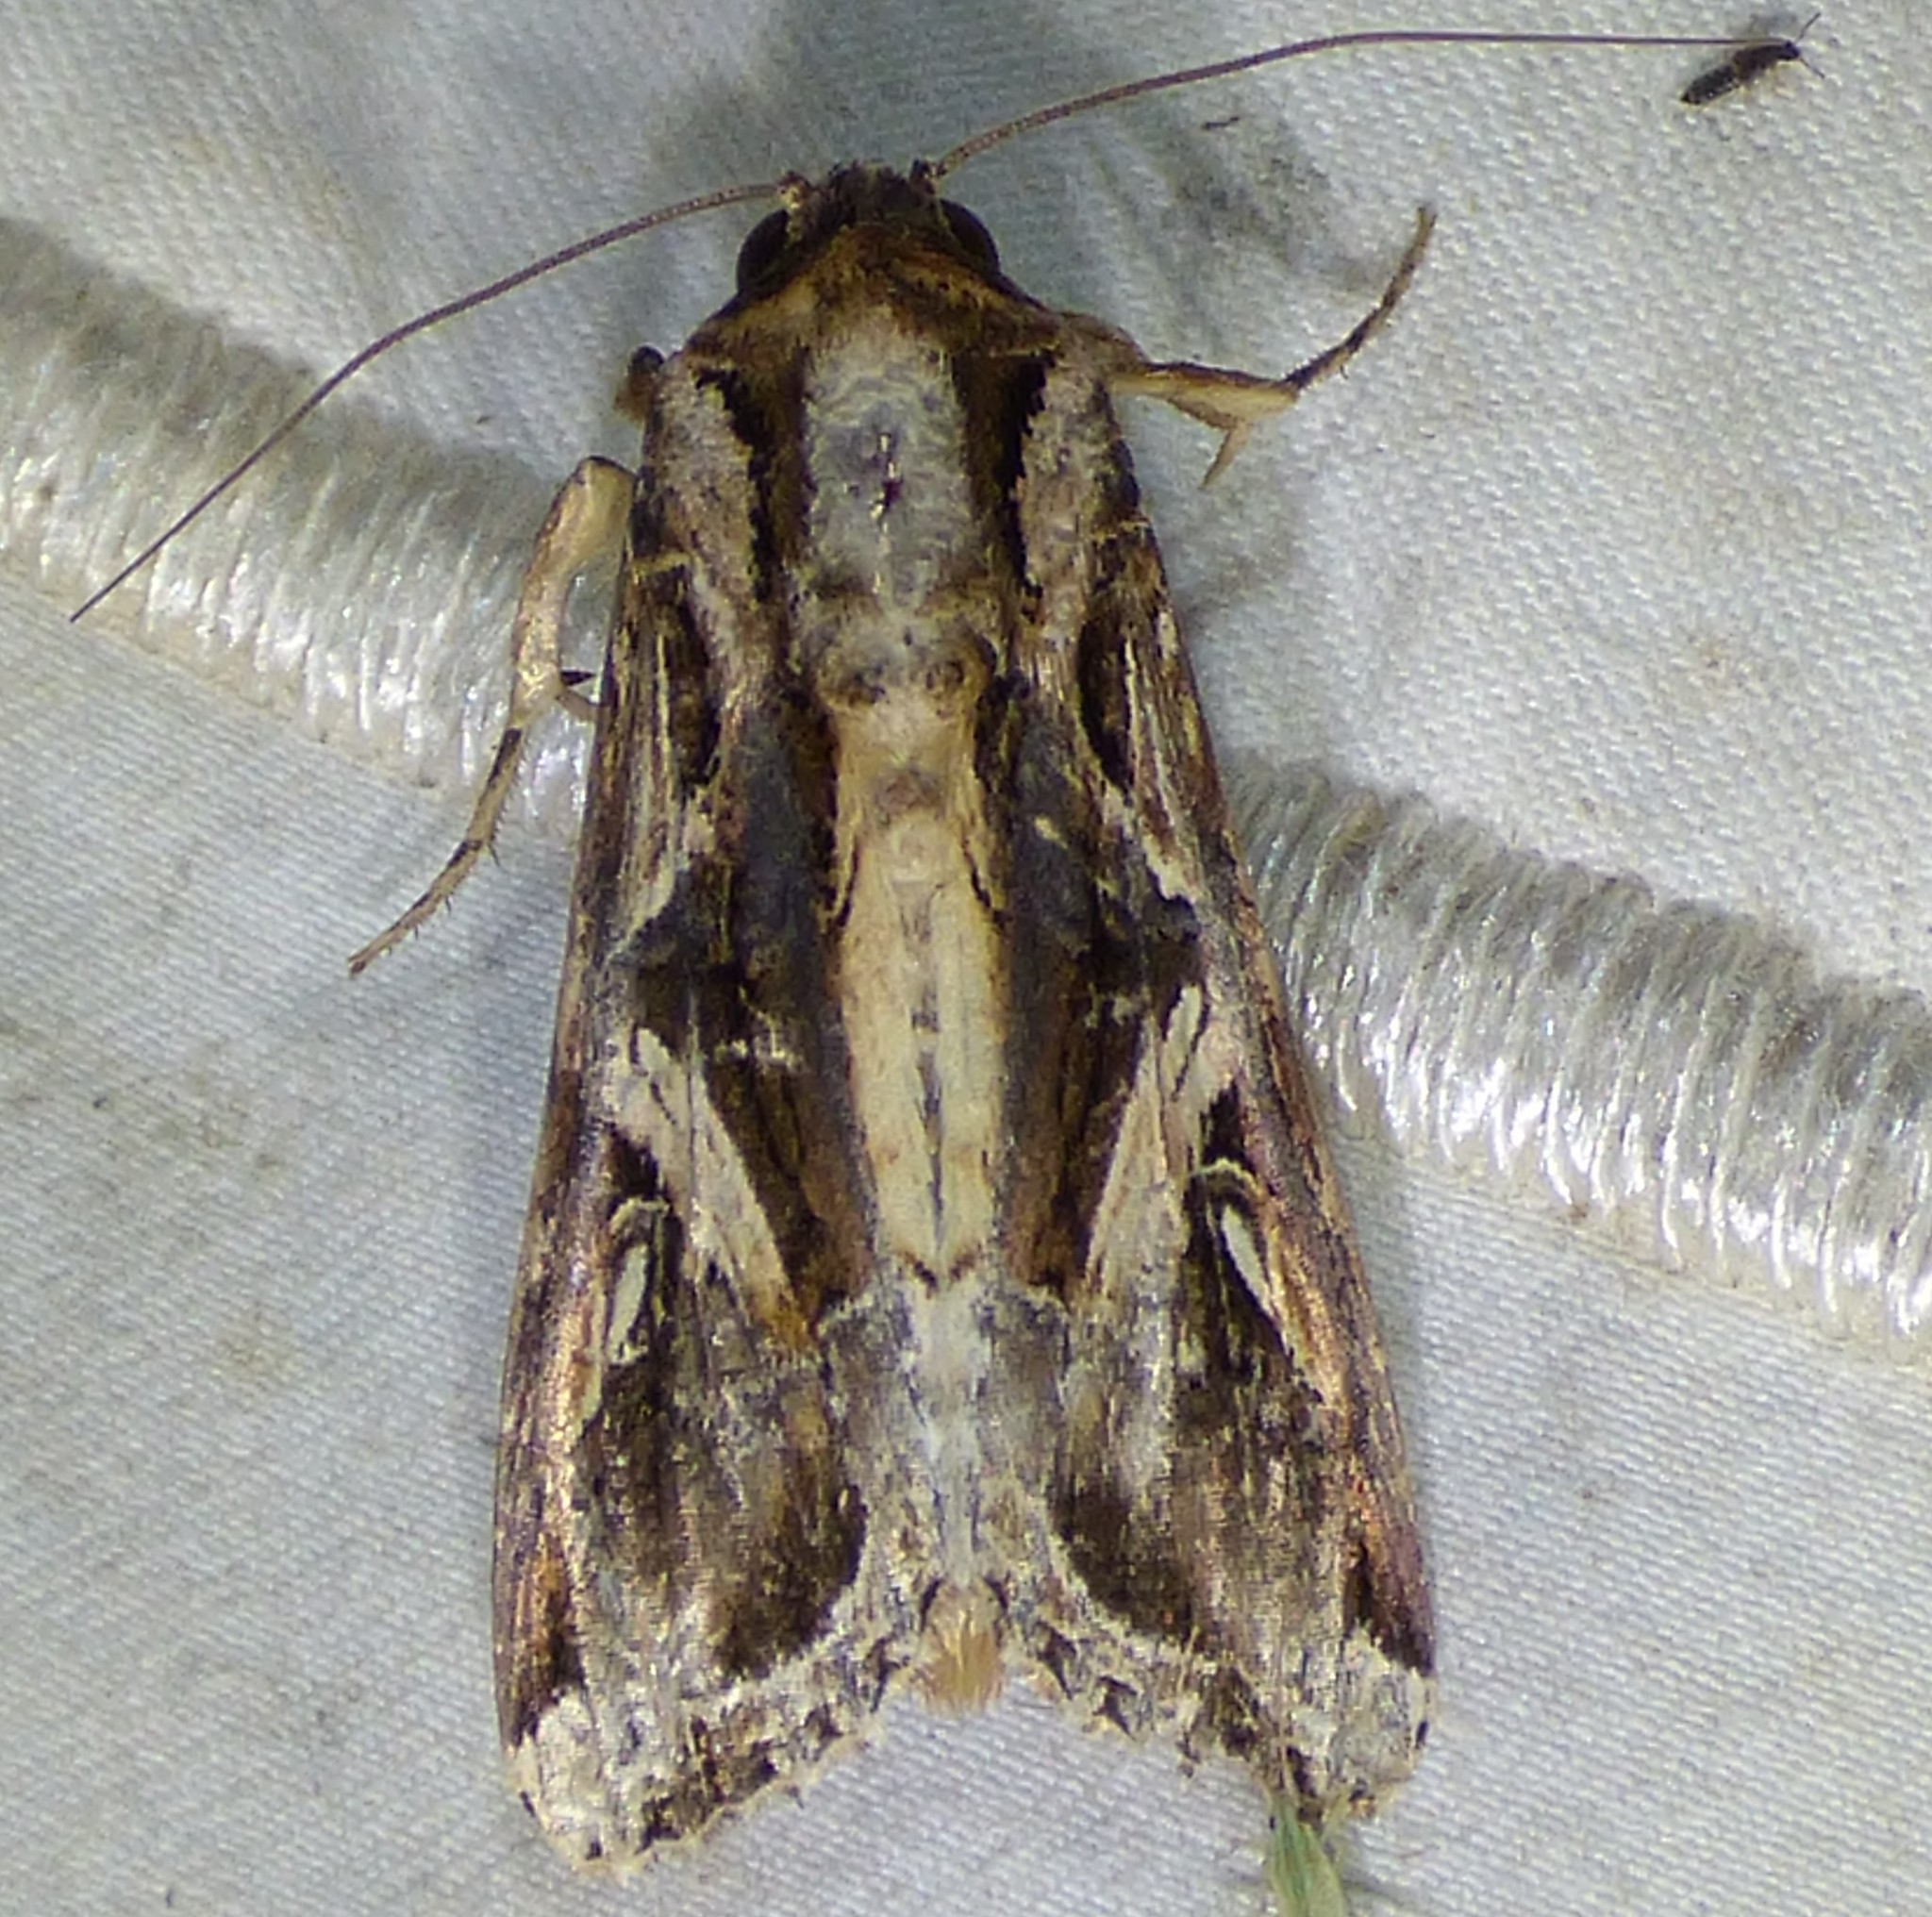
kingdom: Animalia
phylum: Arthropoda
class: Insecta
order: Lepidoptera
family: Noctuidae
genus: Spodoptera
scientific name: Spodoptera dolichos
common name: Sweetpotato armyworm
